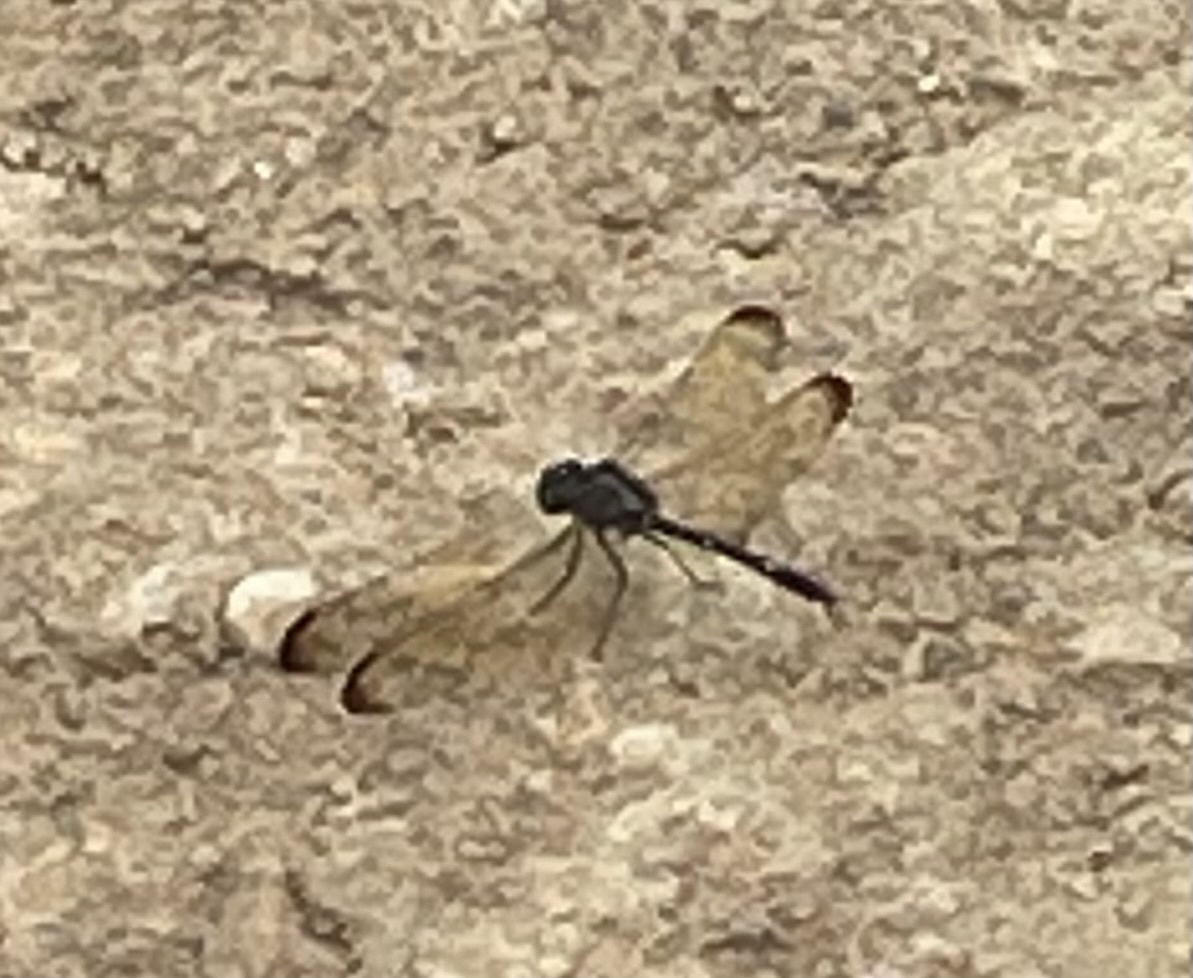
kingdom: Animalia
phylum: Arthropoda
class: Insecta
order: Odonata
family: Libellulidae
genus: Dythemis
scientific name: Dythemis velox
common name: Swift setwing
